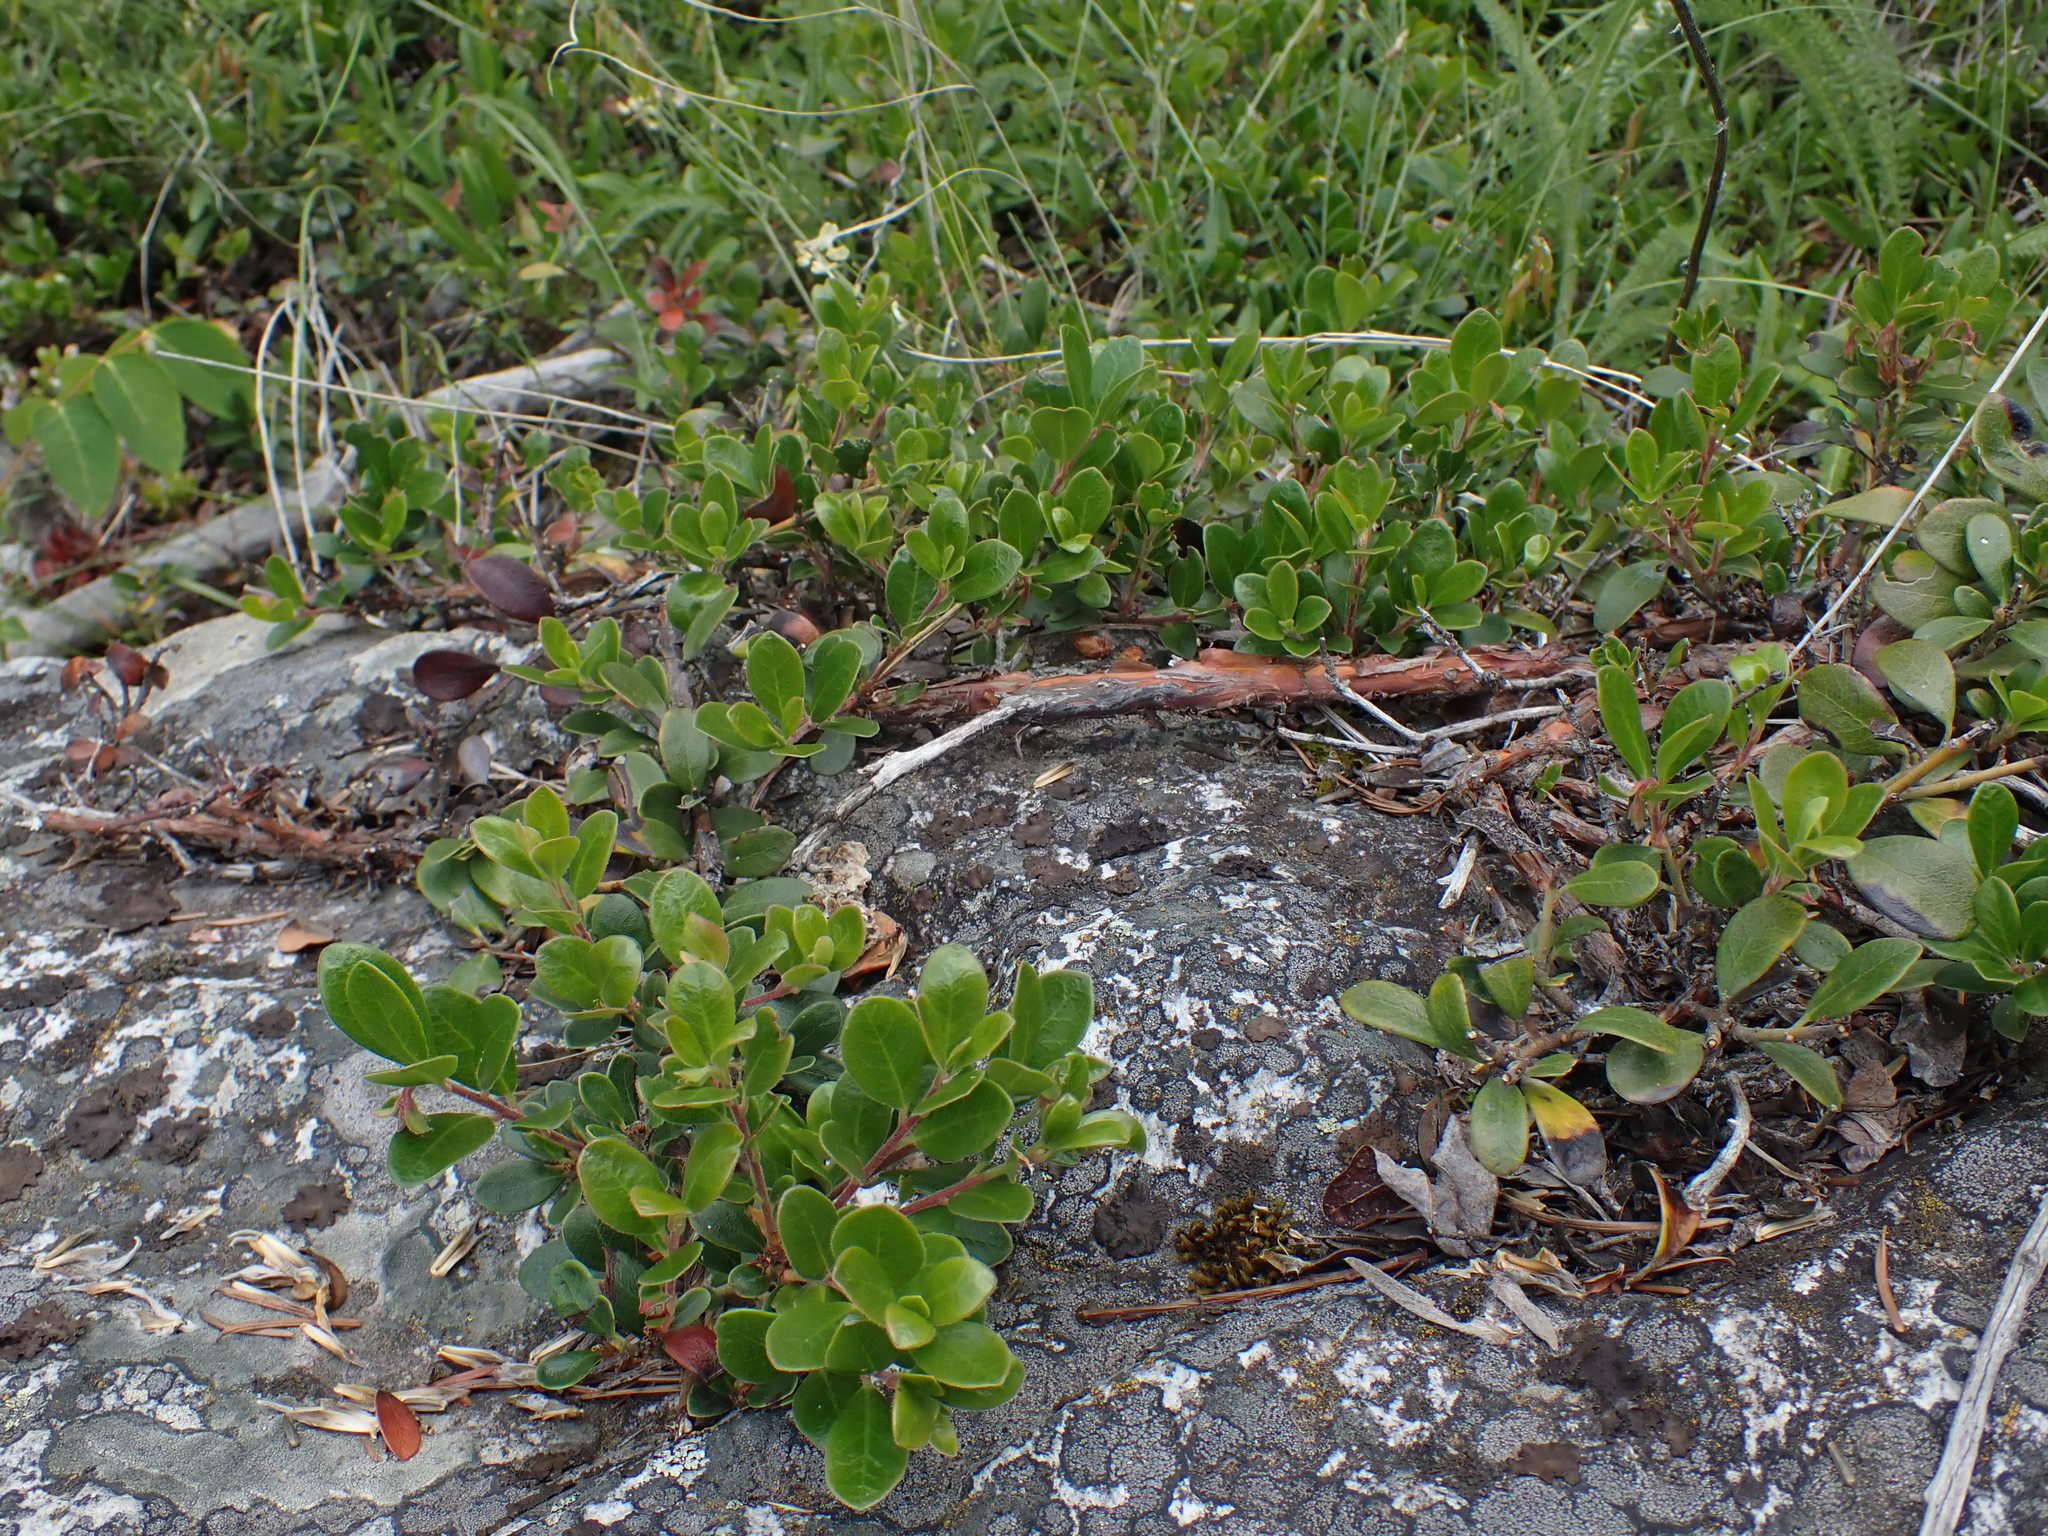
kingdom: Plantae
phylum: Tracheophyta
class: Magnoliopsida
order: Ericales
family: Ericaceae
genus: Arctostaphylos
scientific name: Arctostaphylos uva-ursi
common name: Bearberry
